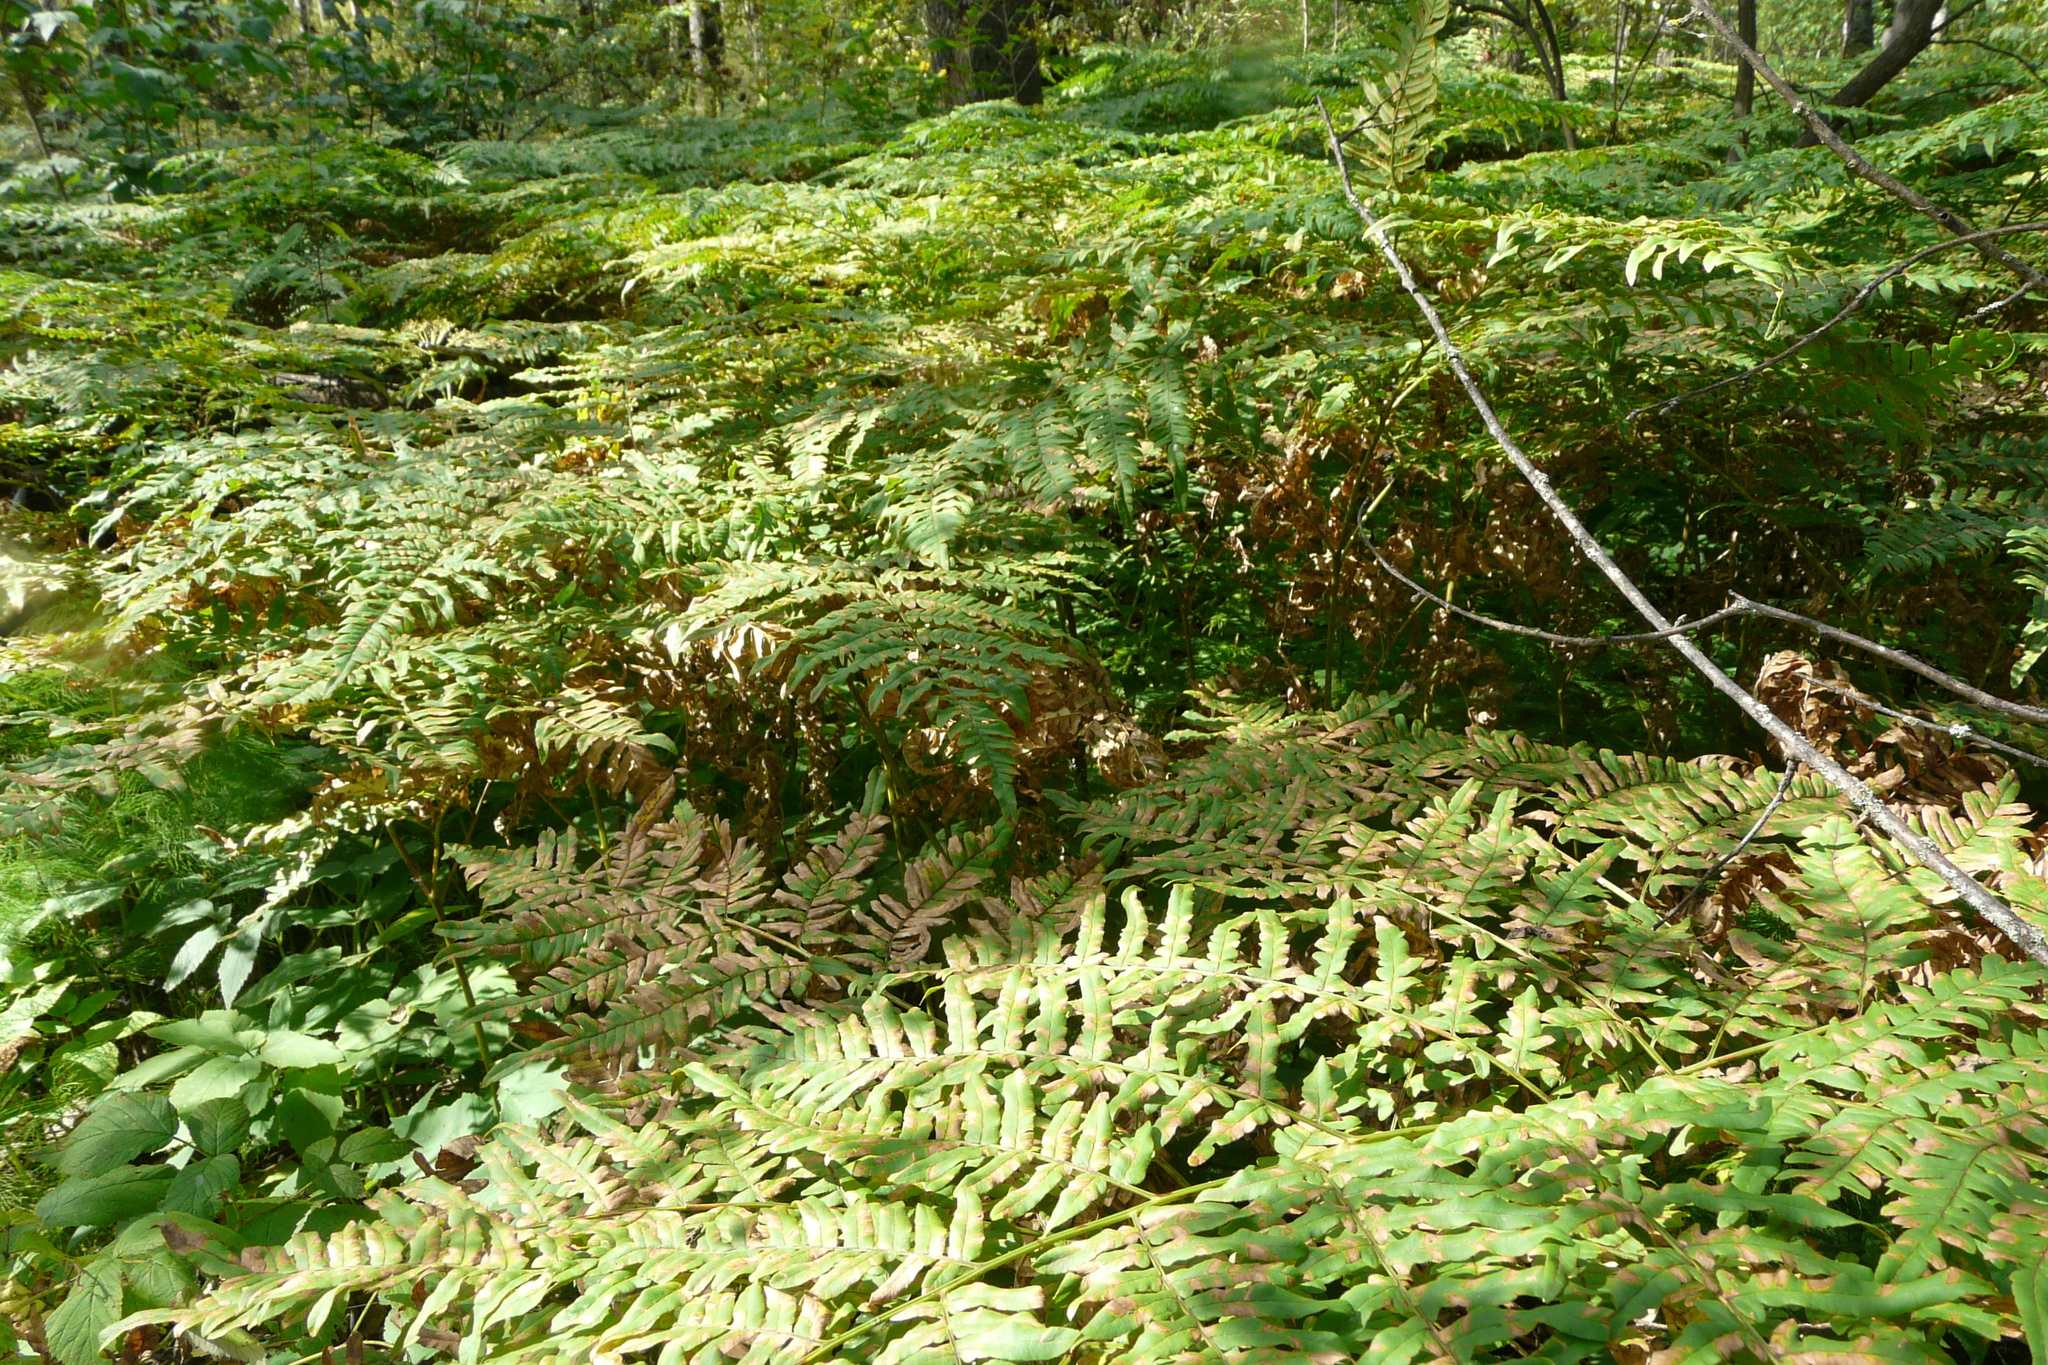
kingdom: Plantae
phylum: Tracheophyta
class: Polypodiopsida
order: Polypodiales
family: Dennstaedtiaceae
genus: Pteridium
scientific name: Pteridium aquilinum
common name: Bracken
